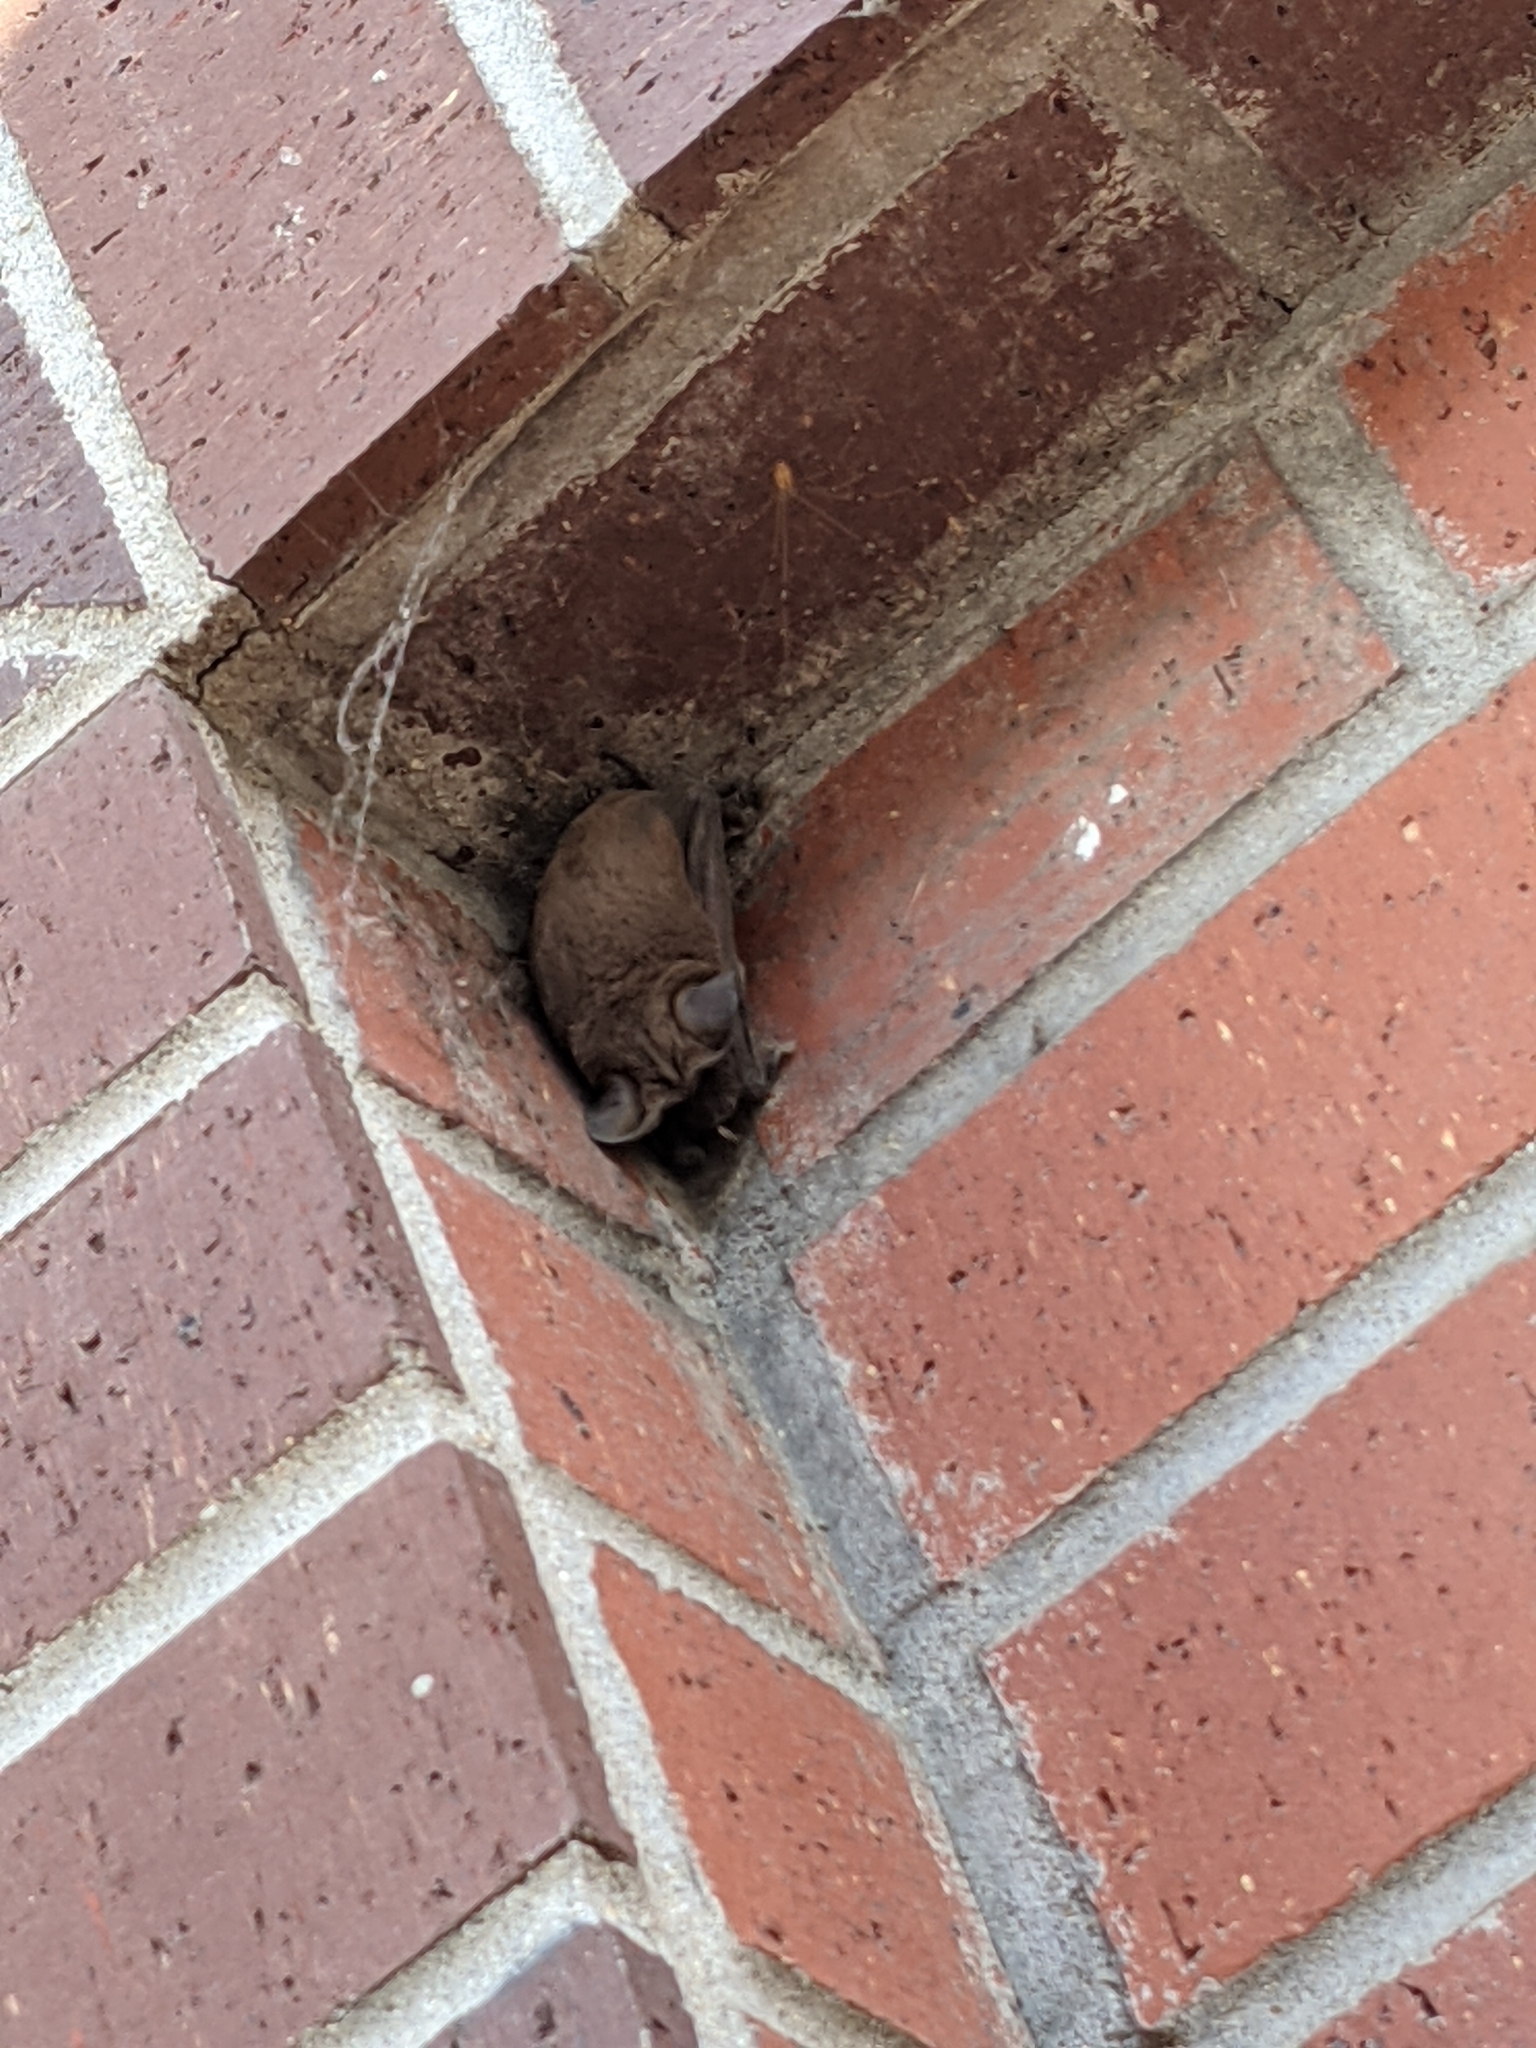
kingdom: Animalia
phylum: Chordata
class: Mammalia
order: Chiroptera
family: Molossidae
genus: Tadarida
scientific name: Tadarida brasiliensis
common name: Mexican free-tailed bat
